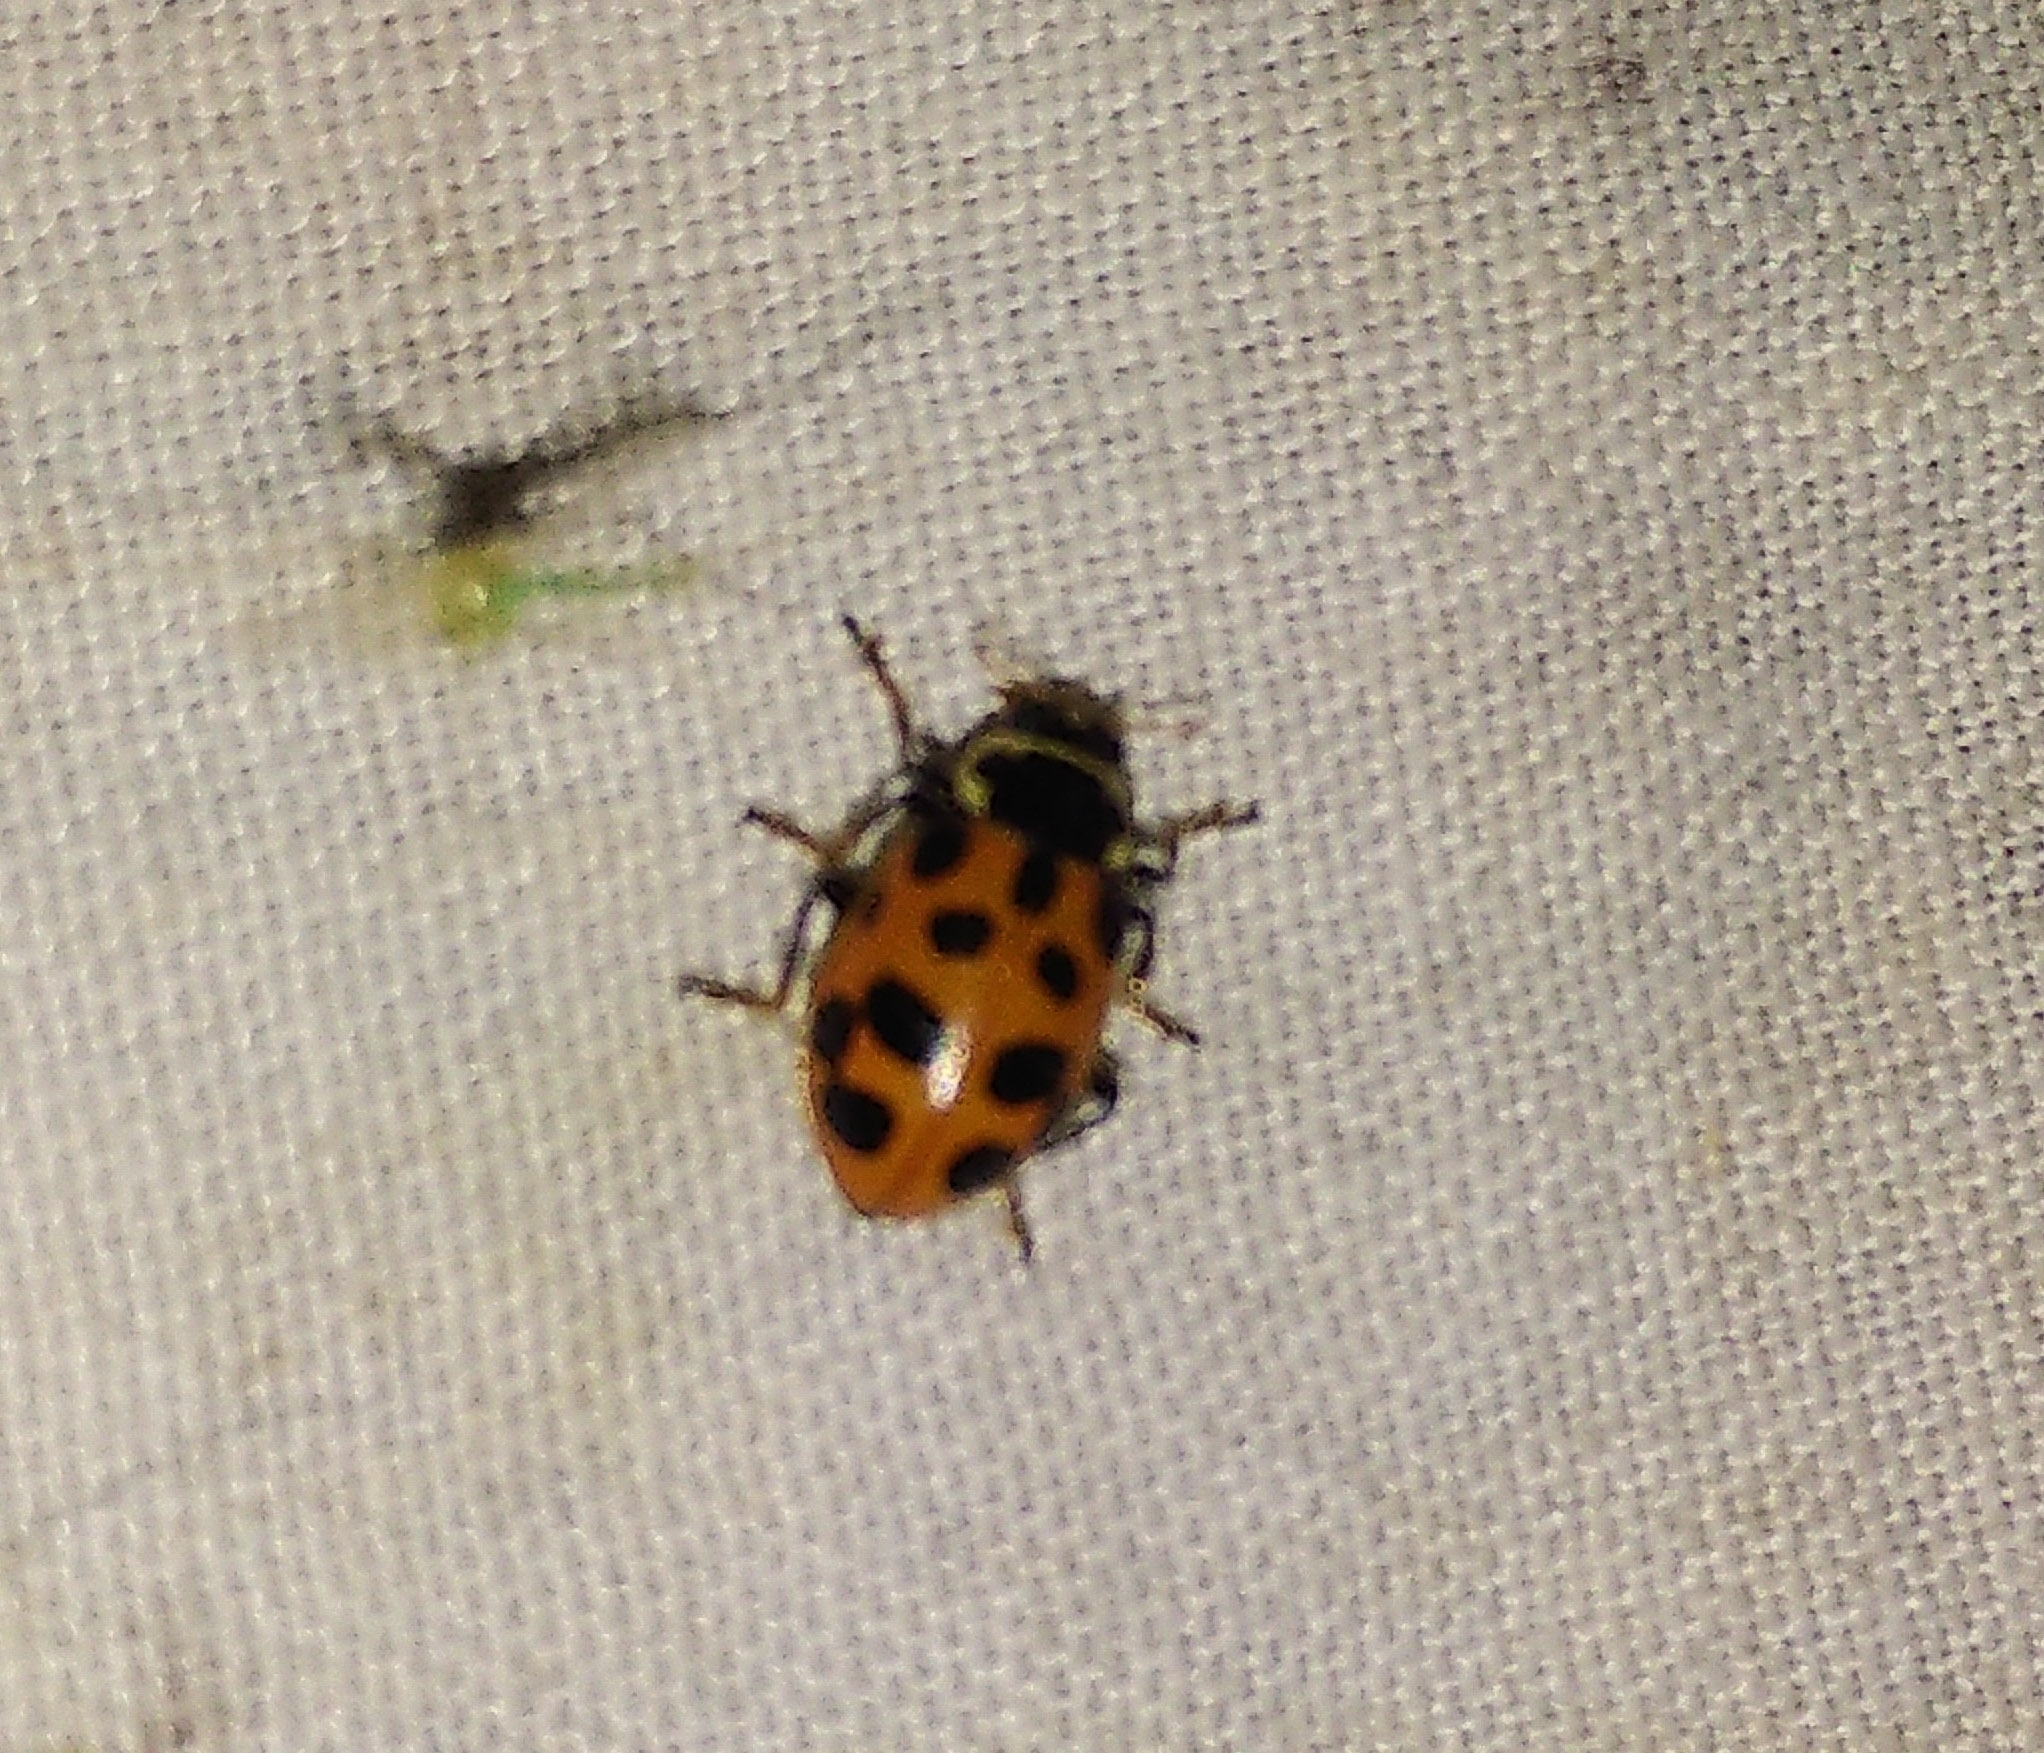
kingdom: Animalia
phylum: Arthropoda
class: Insecta
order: Coleoptera
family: Coccinellidae
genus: Hippodamia
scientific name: Hippodamia tredecimpunctata
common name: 13-spot ladybird
